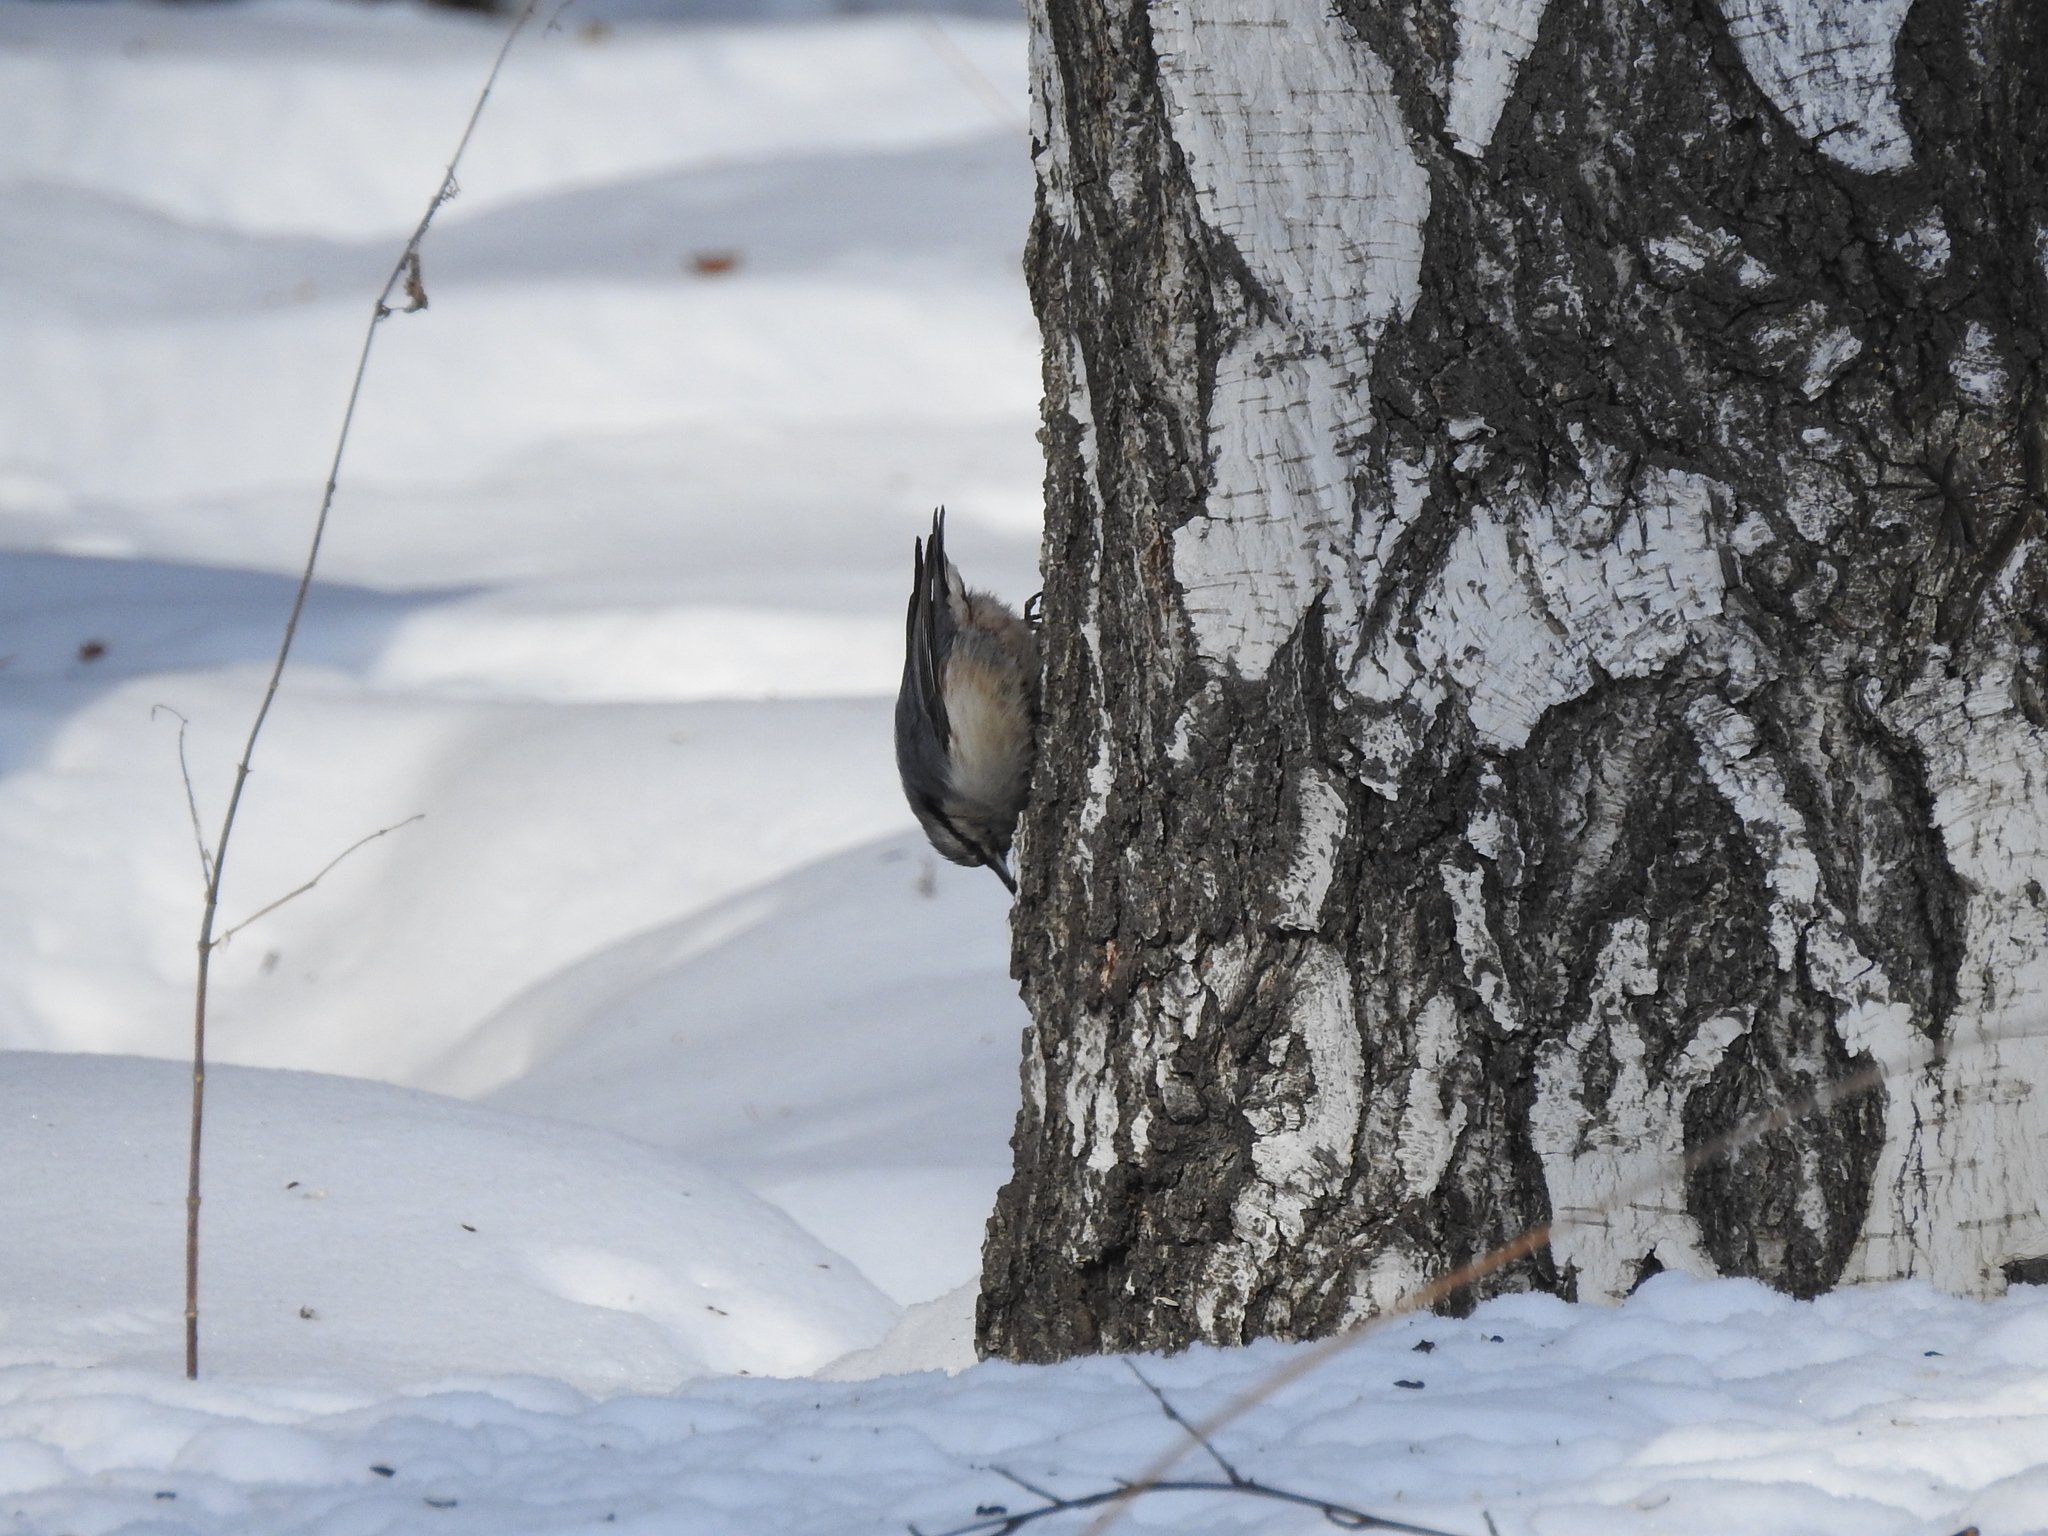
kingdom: Animalia
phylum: Chordata
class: Aves
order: Passeriformes
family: Sittidae
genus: Sitta
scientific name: Sitta europaea
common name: Eurasian nuthatch
